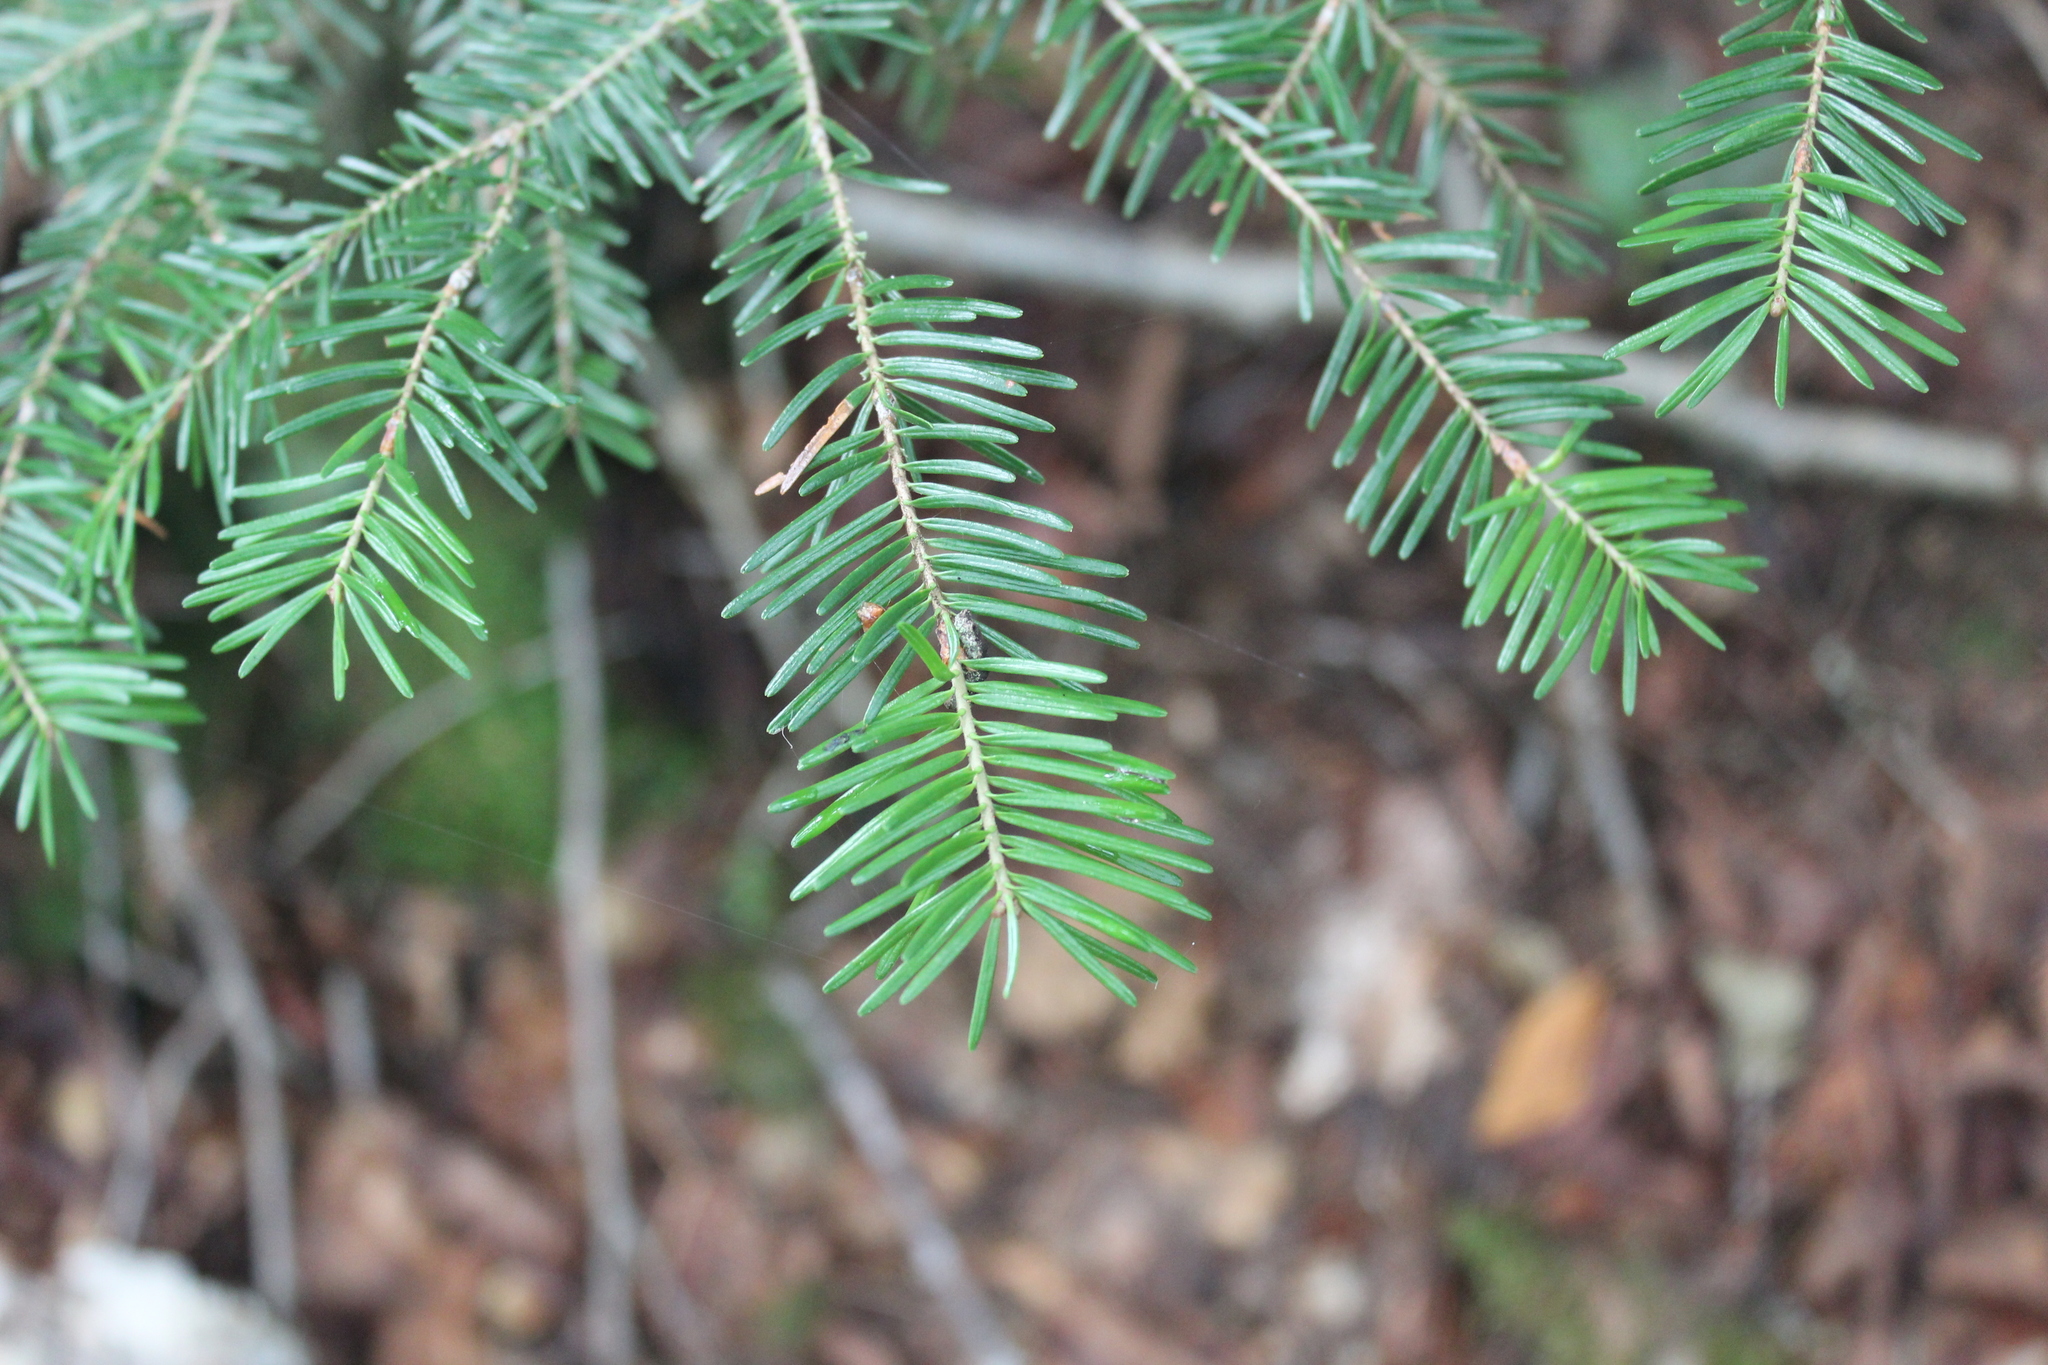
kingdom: Plantae
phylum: Tracheophyta
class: Pinopsida
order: Pinales
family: Pinaceae
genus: Abies
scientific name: Abies balsamea
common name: Balsam fir
